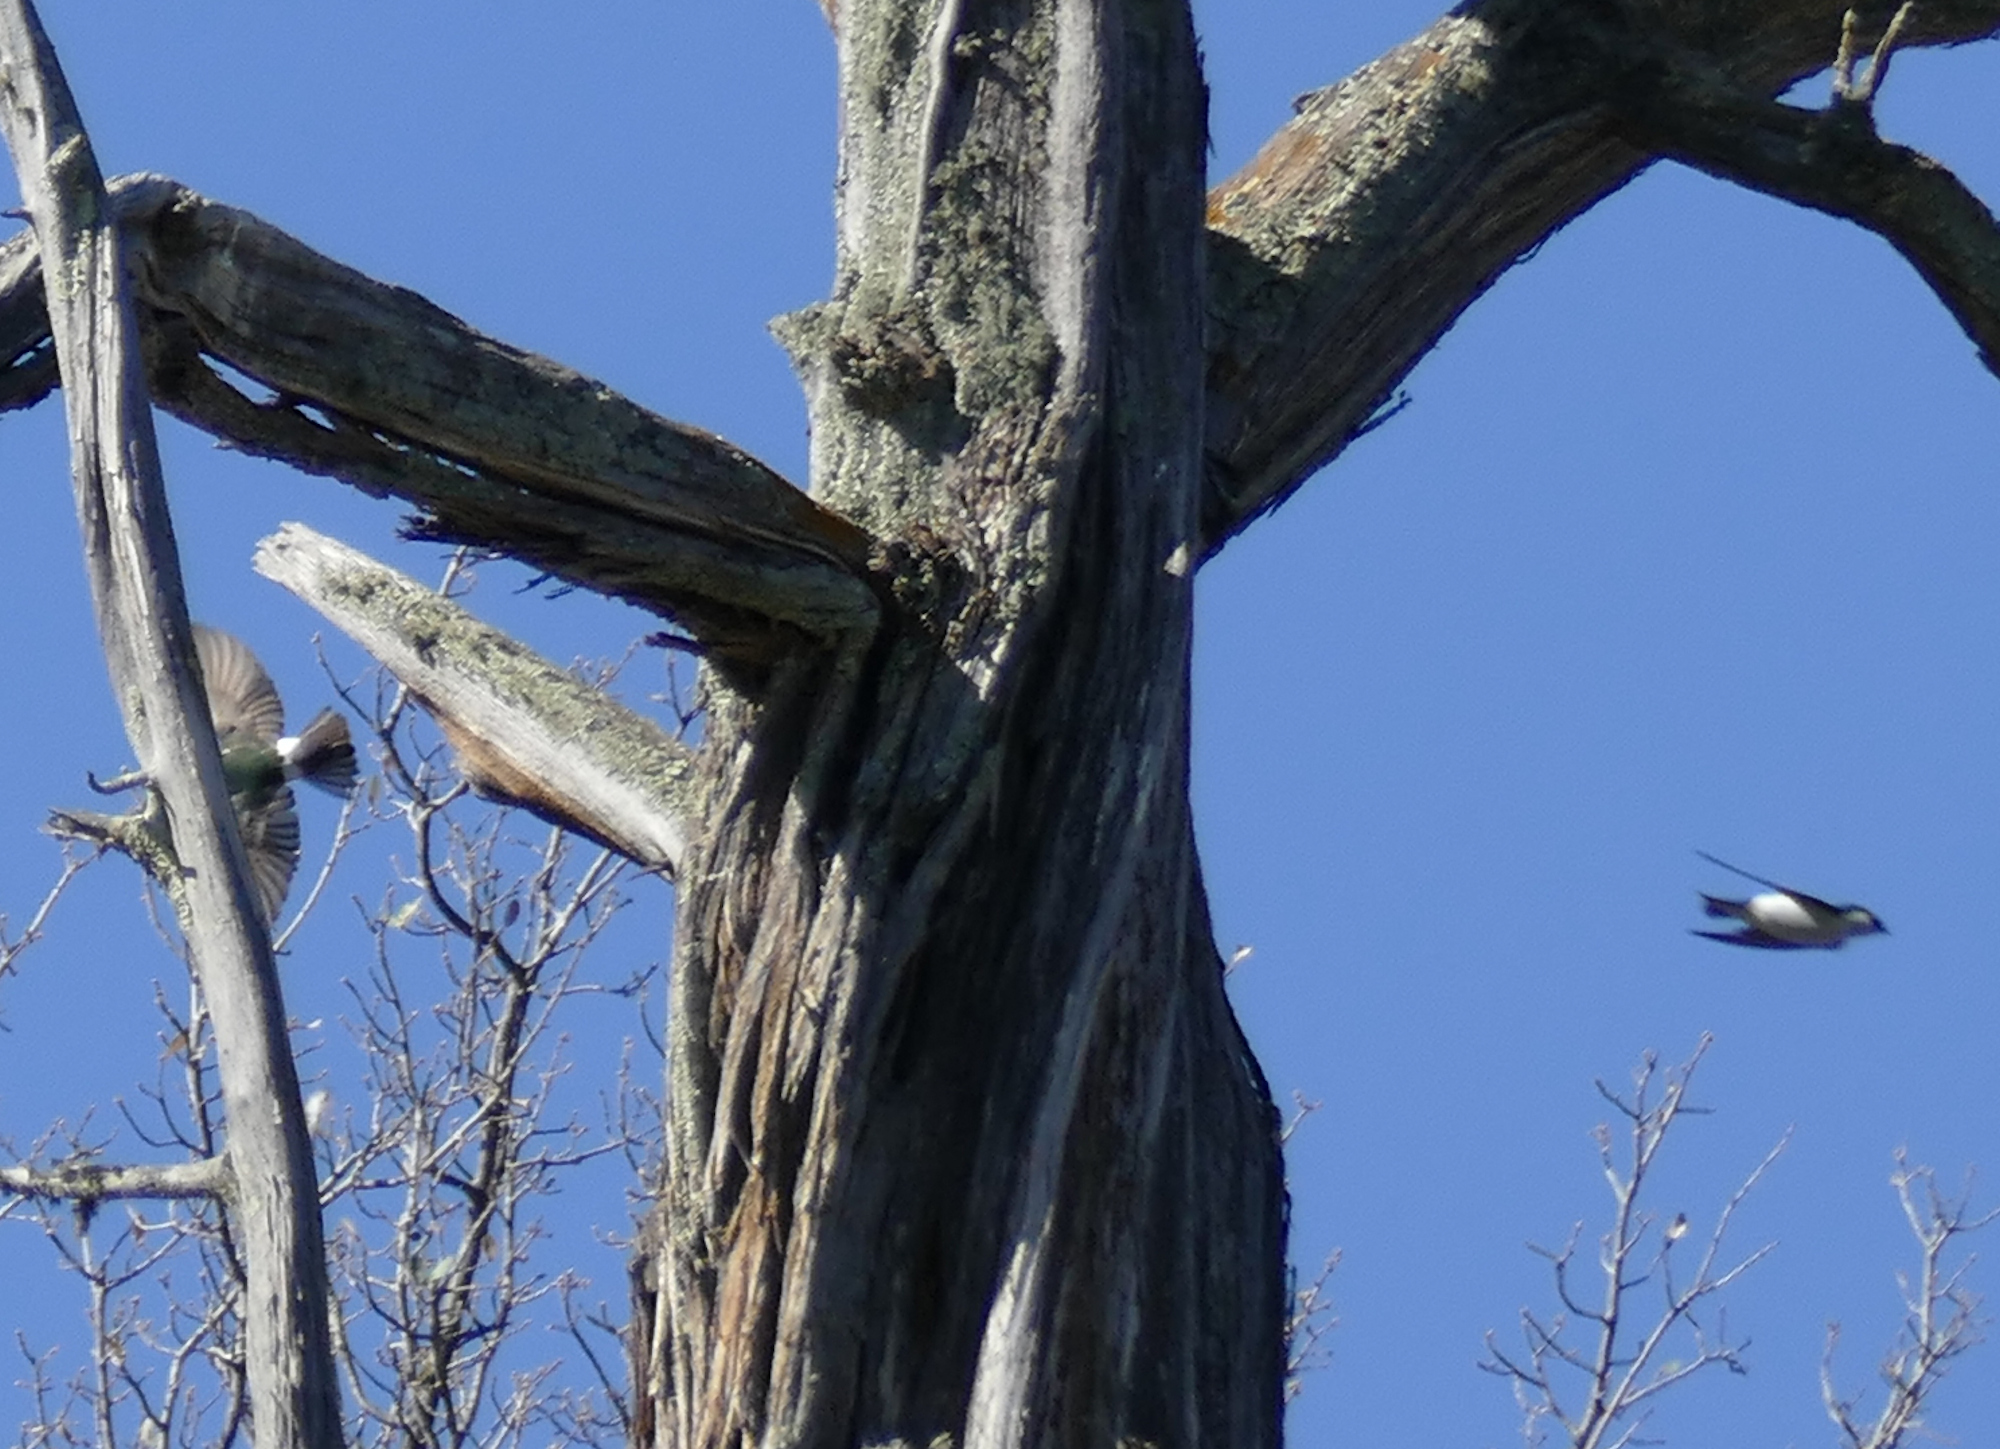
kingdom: Animalia
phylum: Chordata
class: Aves
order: Passeriformes
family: Hirundinidae
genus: Tachycineta
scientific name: Tachycineta thalassina
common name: Violet-green swallow
